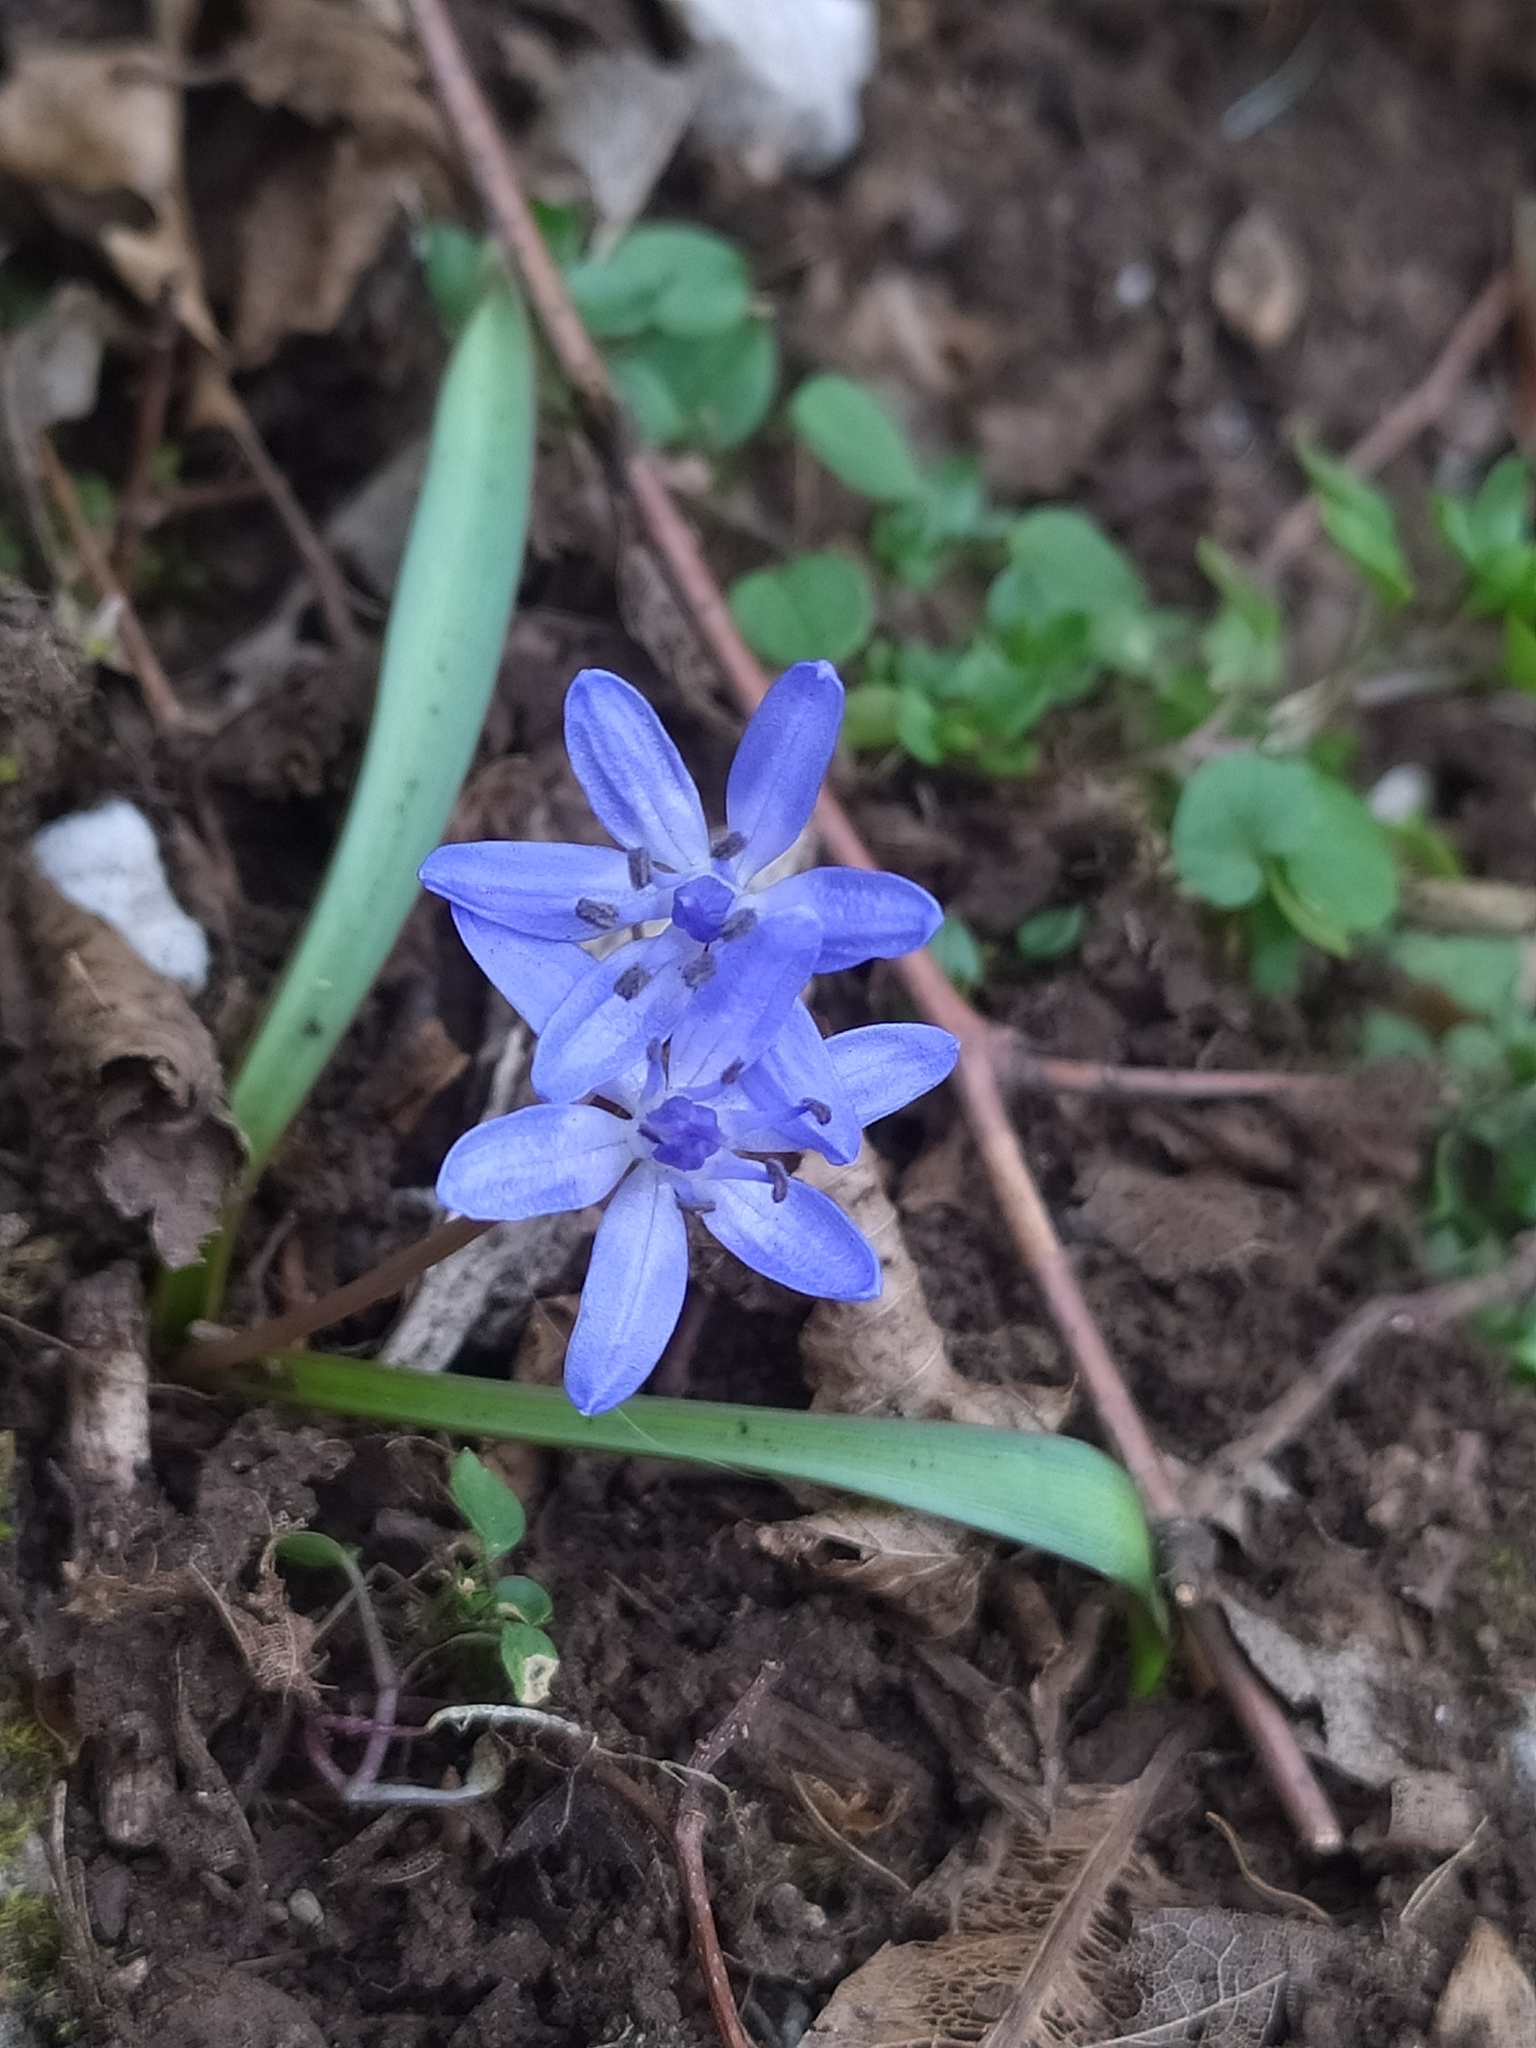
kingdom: Plantae
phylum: Tracheophyta
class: Liliopsida
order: Asparagales
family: Asparagaceae
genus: Scilla
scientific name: Scilla bifolia
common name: Alpine squill
